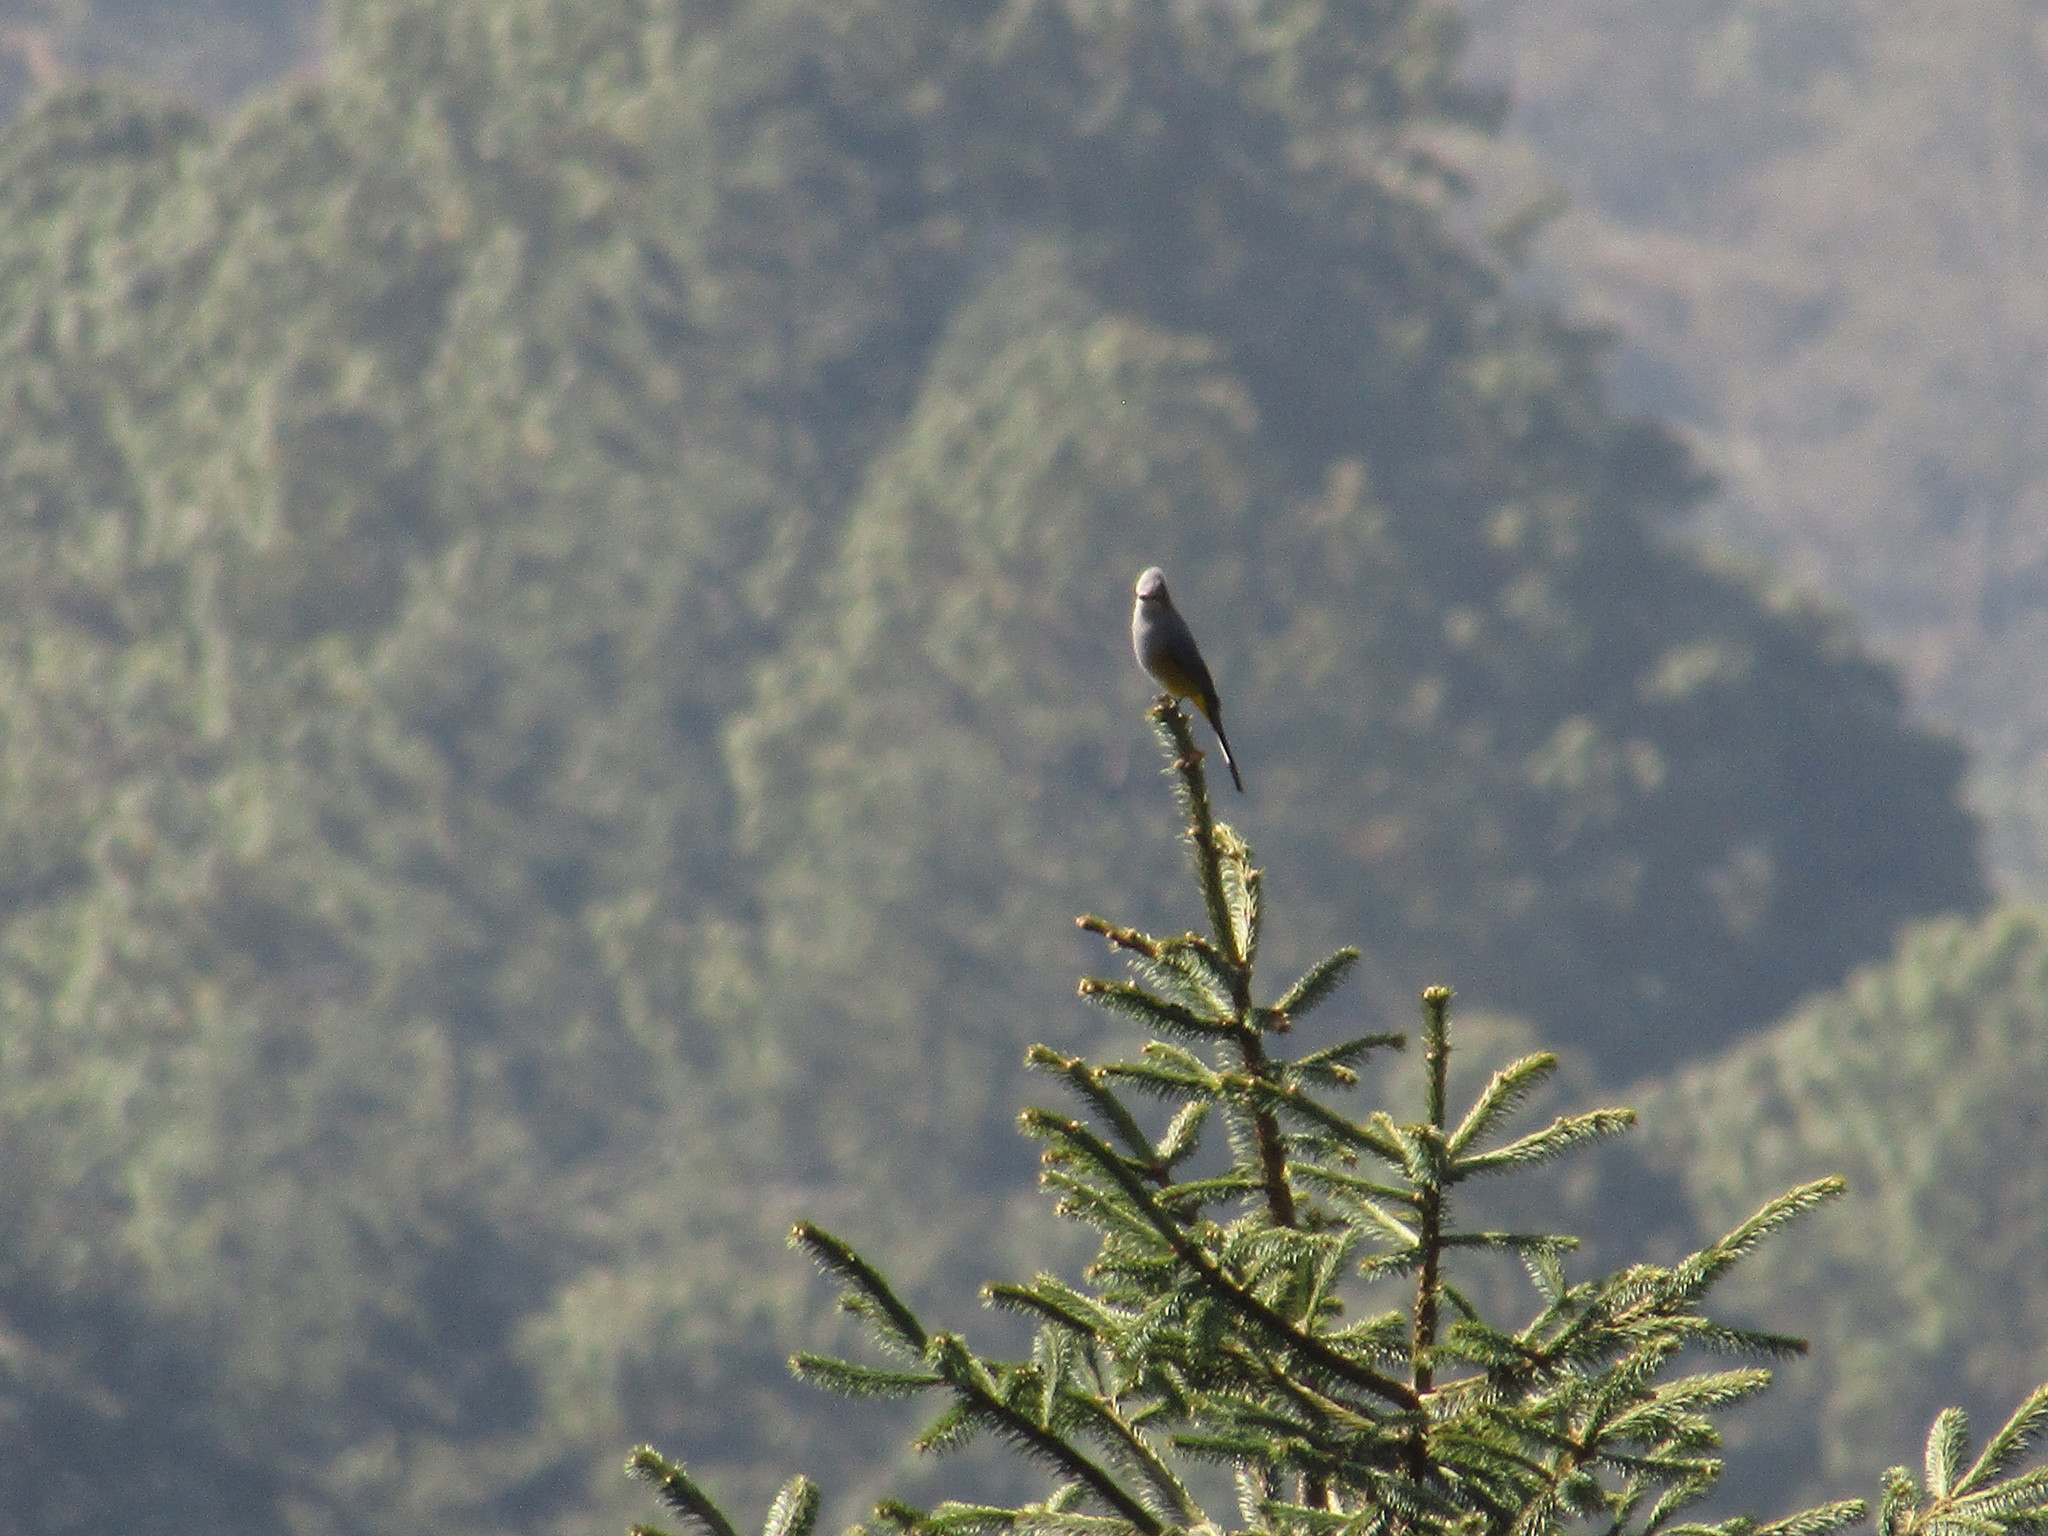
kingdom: Animalia
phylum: Chordata
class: Aves
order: Passeriformes
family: Ptilogonatidae
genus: Ptilogonys
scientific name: Ptilogonys cinereus
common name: Gray silky-flycatcher
